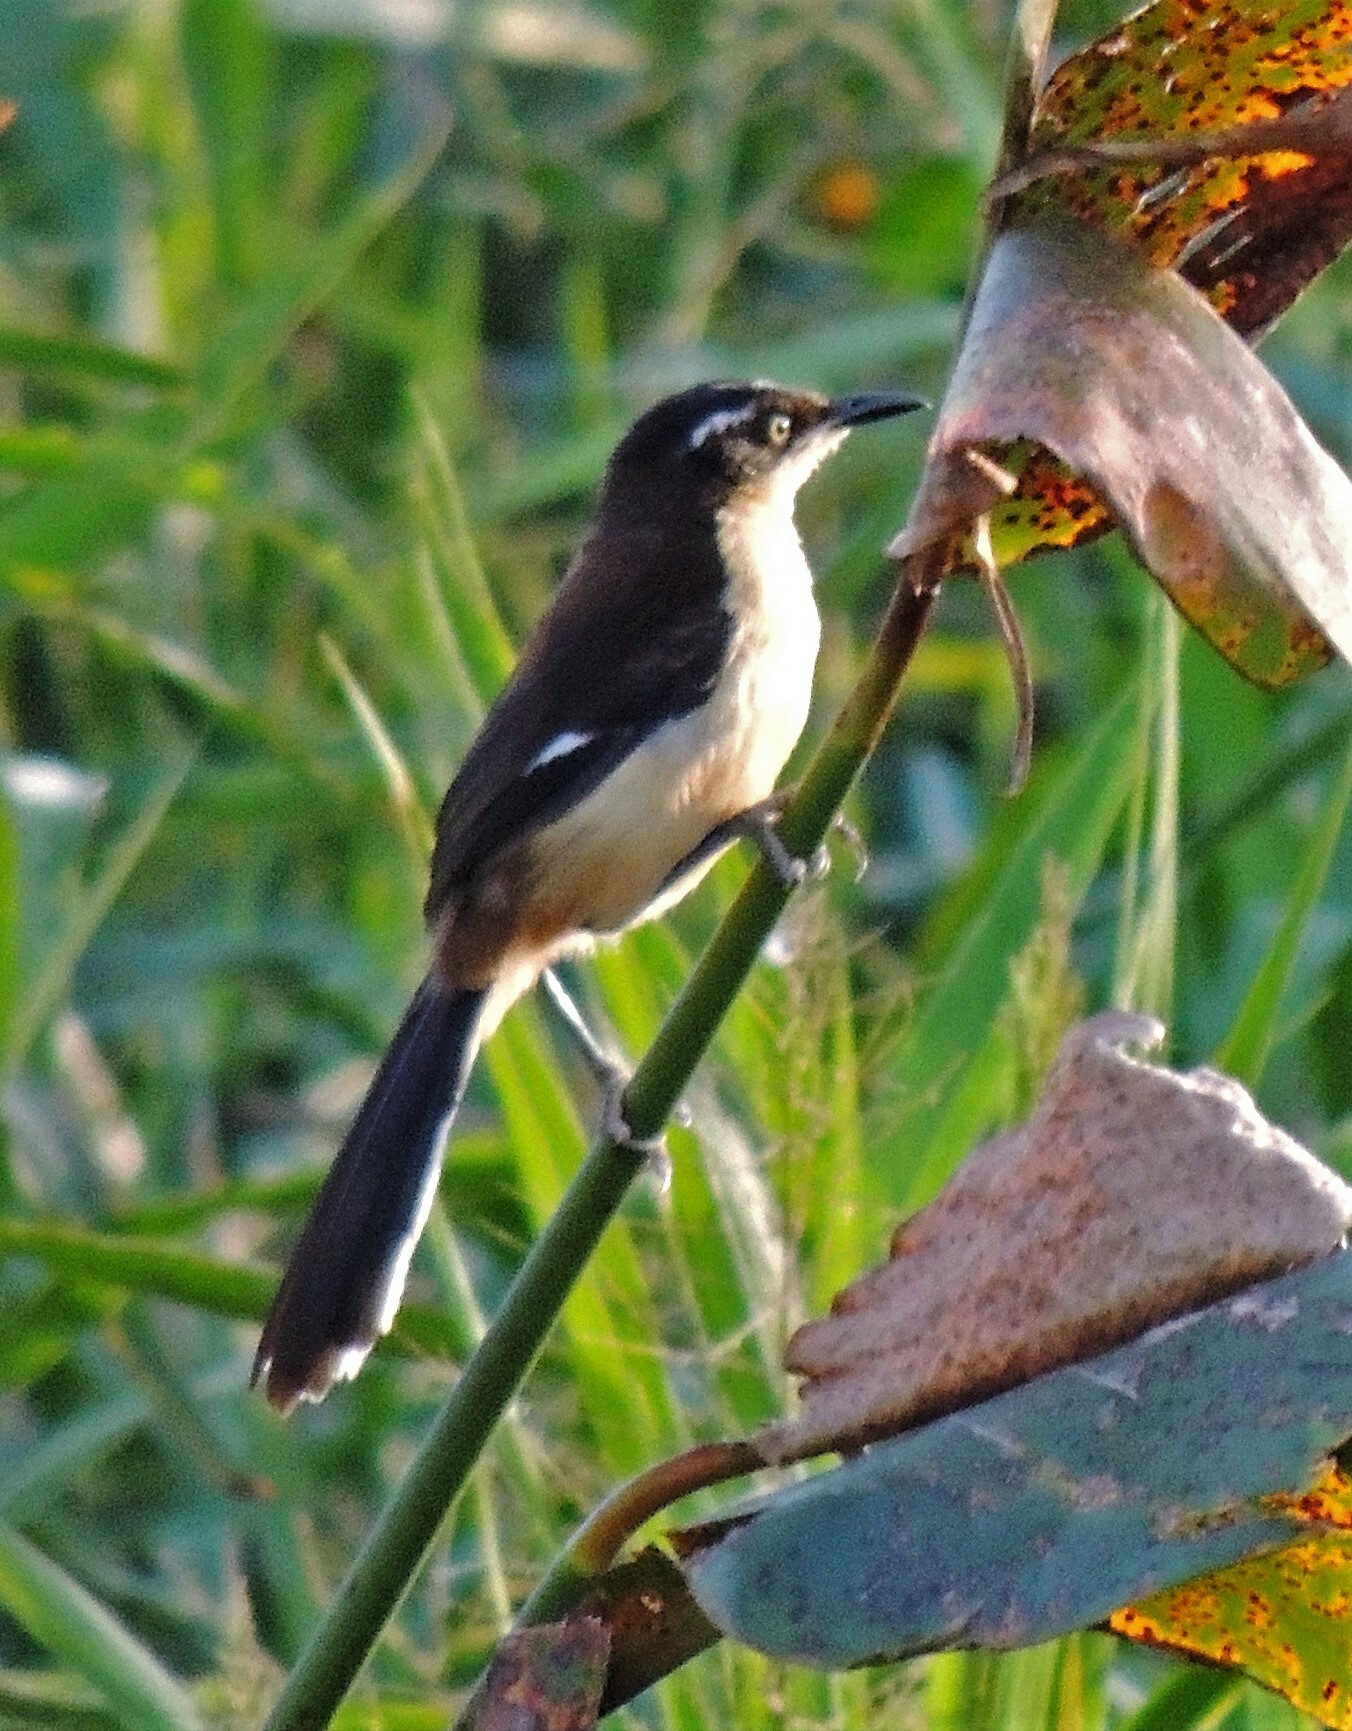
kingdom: Animalia
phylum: Chordata
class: Aves
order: Passeriformes
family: Donacobiidae
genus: Donacobius
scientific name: Donacobius atricapilla
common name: Black-capped donacobius
